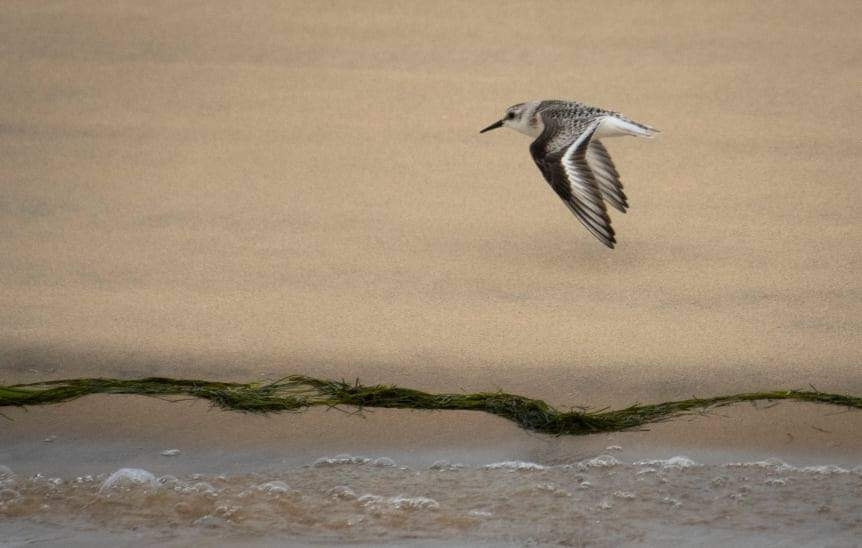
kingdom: Animalia
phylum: Chordata
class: Aves
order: Charadriiformes
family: Scolopacidae
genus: Calidris
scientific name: Calidris alba
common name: Sanderling
